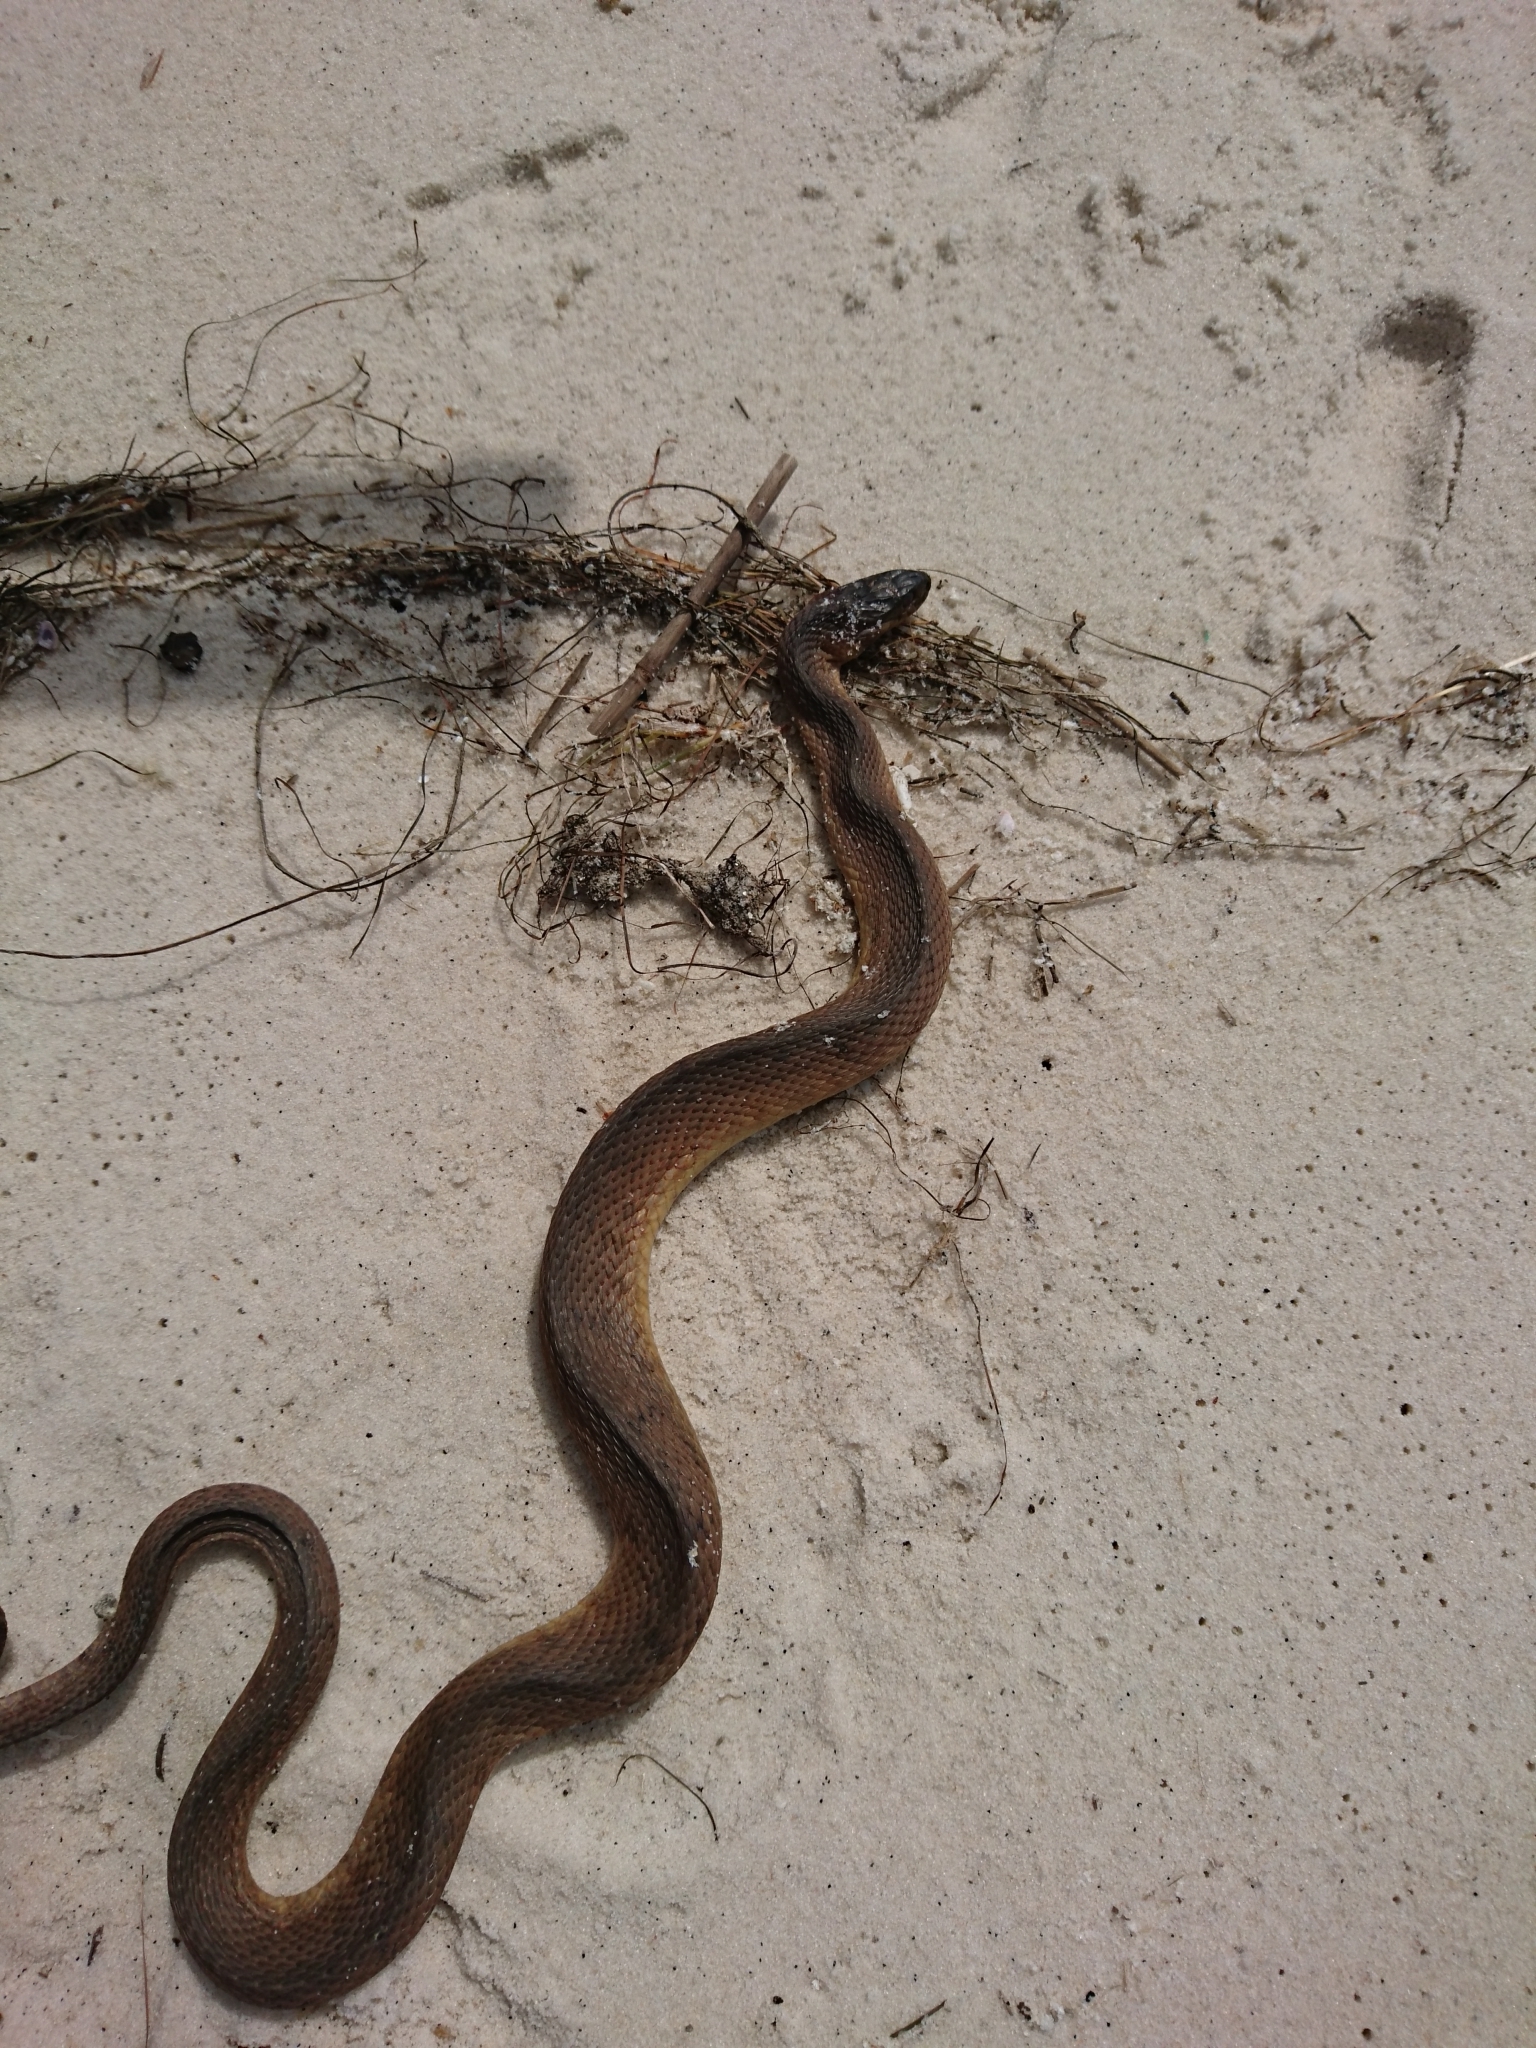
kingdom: Animalia
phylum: Chordata
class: Squamata
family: Colubridae
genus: Nerodia
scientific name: Nerodia erythrogaster
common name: Plainbelly water snake
